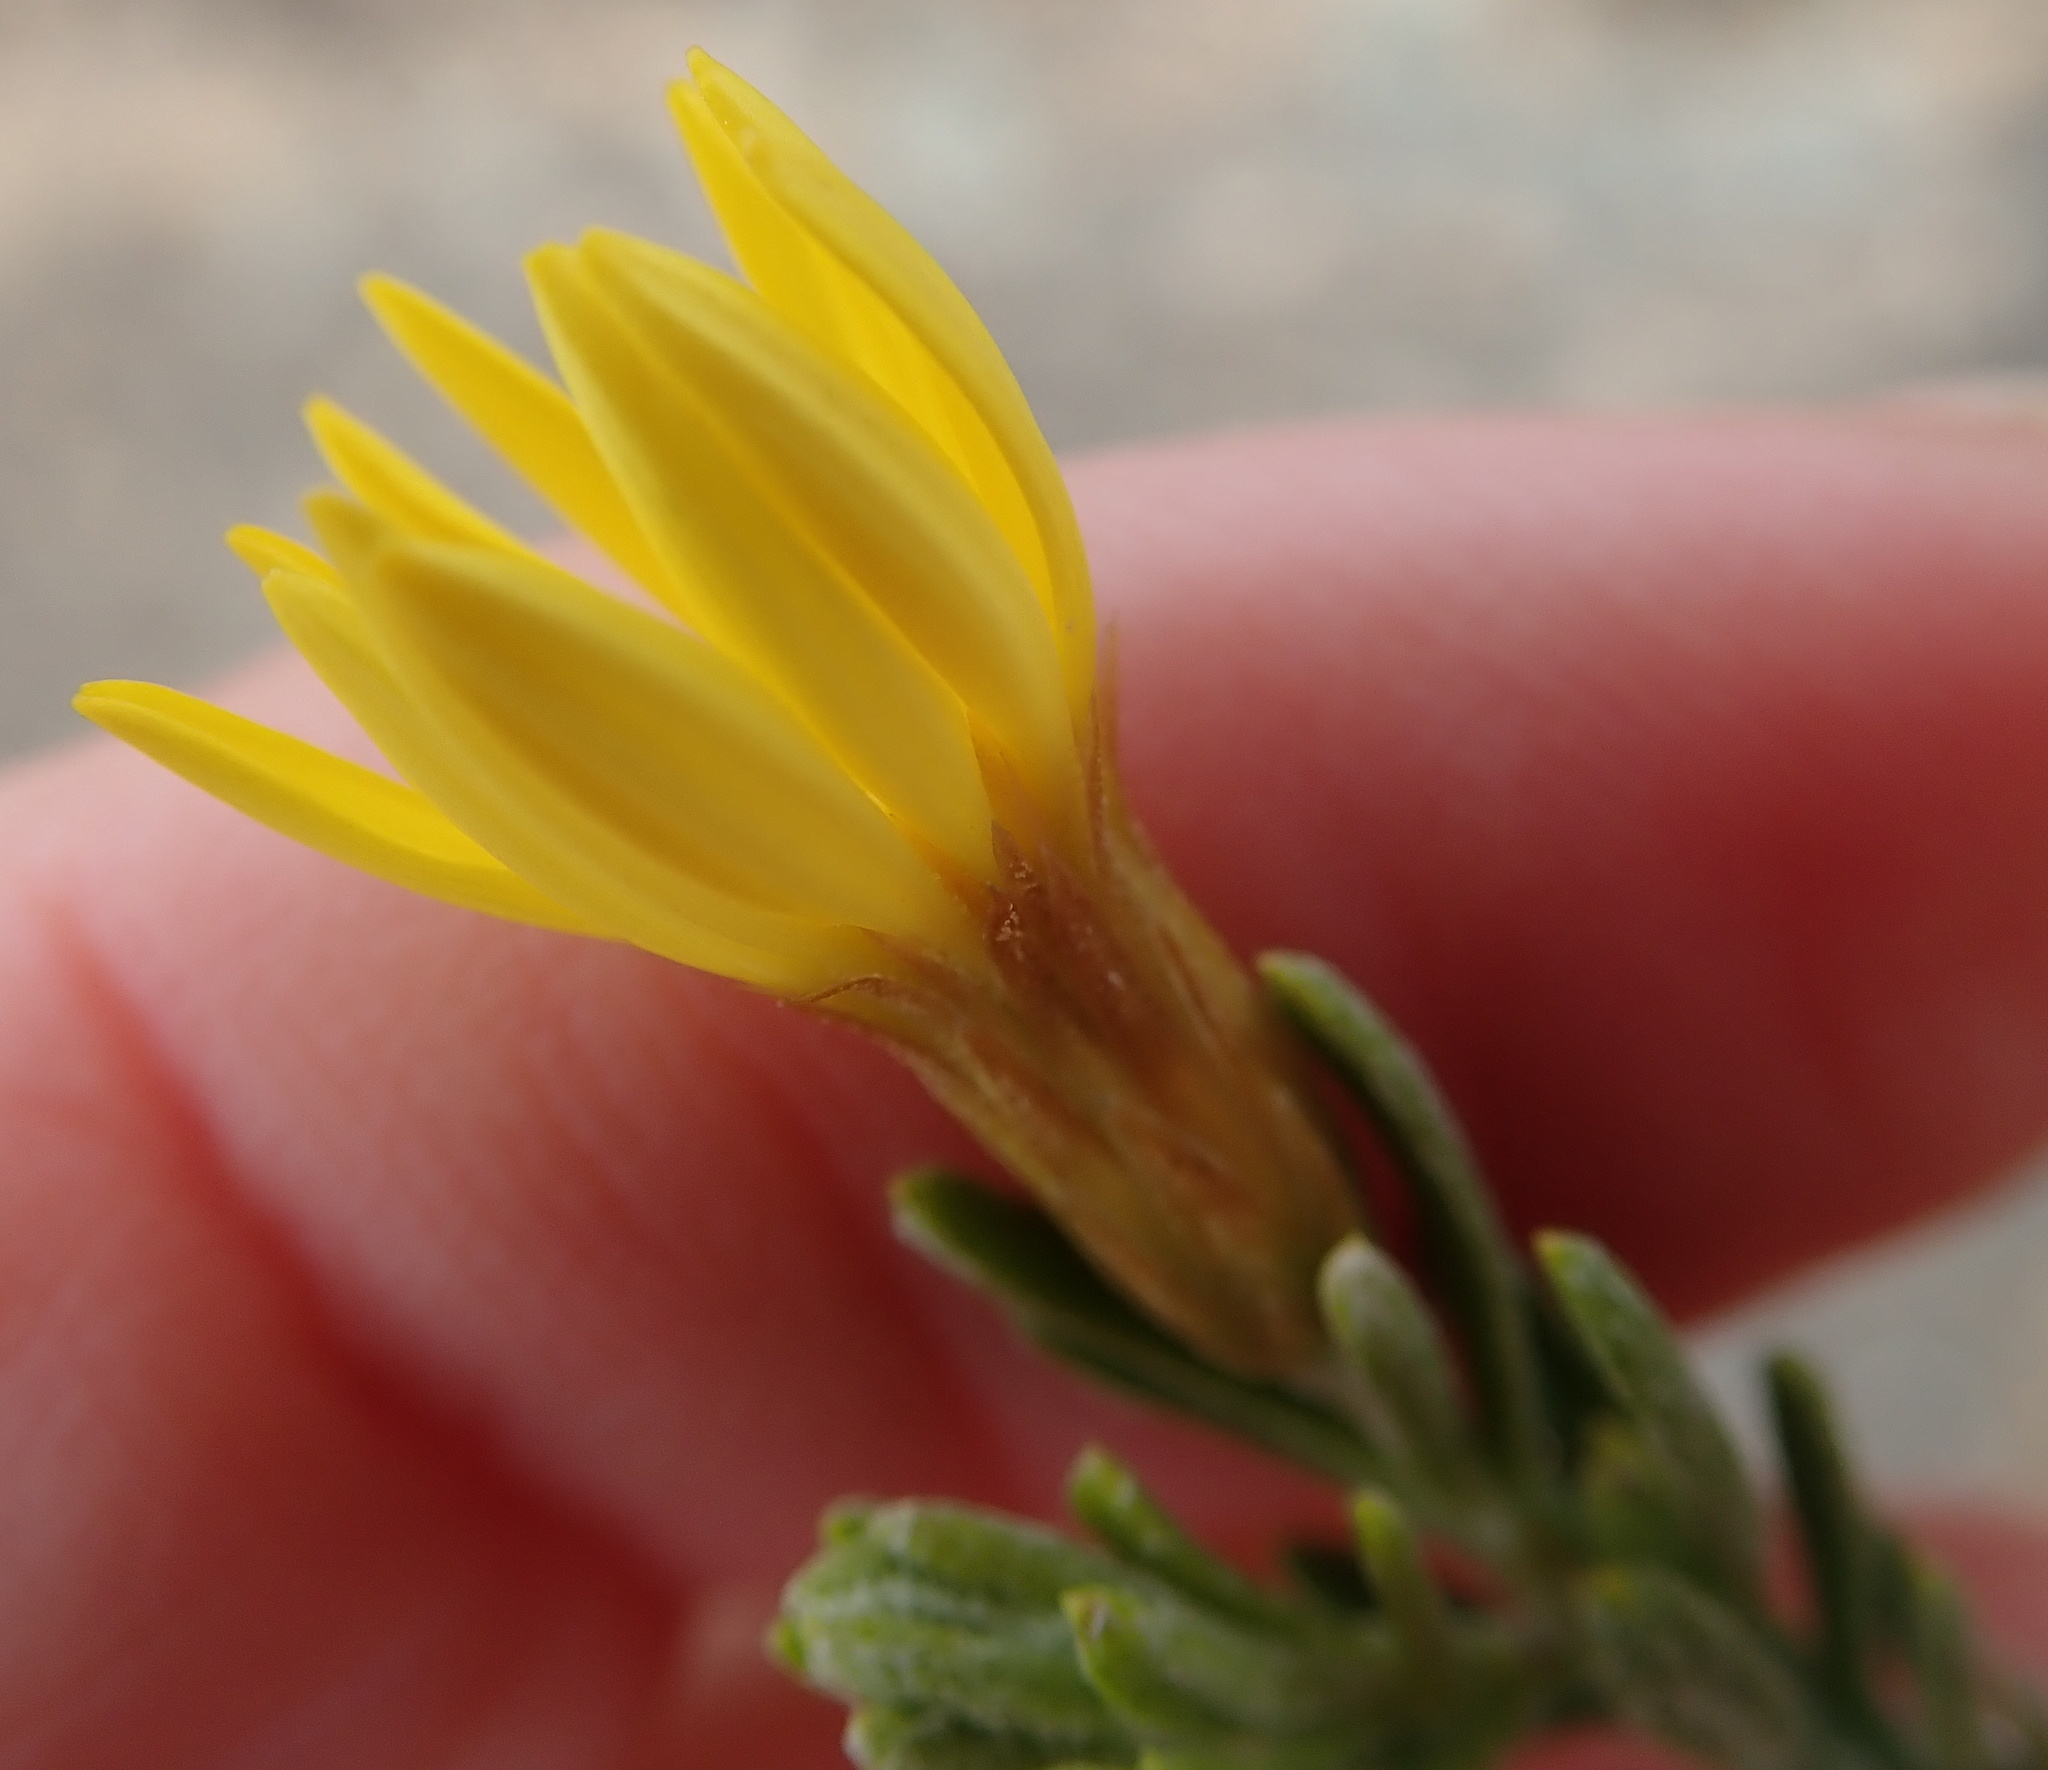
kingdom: Plantae
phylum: Tracheophyta
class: Magnoliopsida
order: Asterales
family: Asteraceae
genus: Oedera
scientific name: Oedera sedifolia
